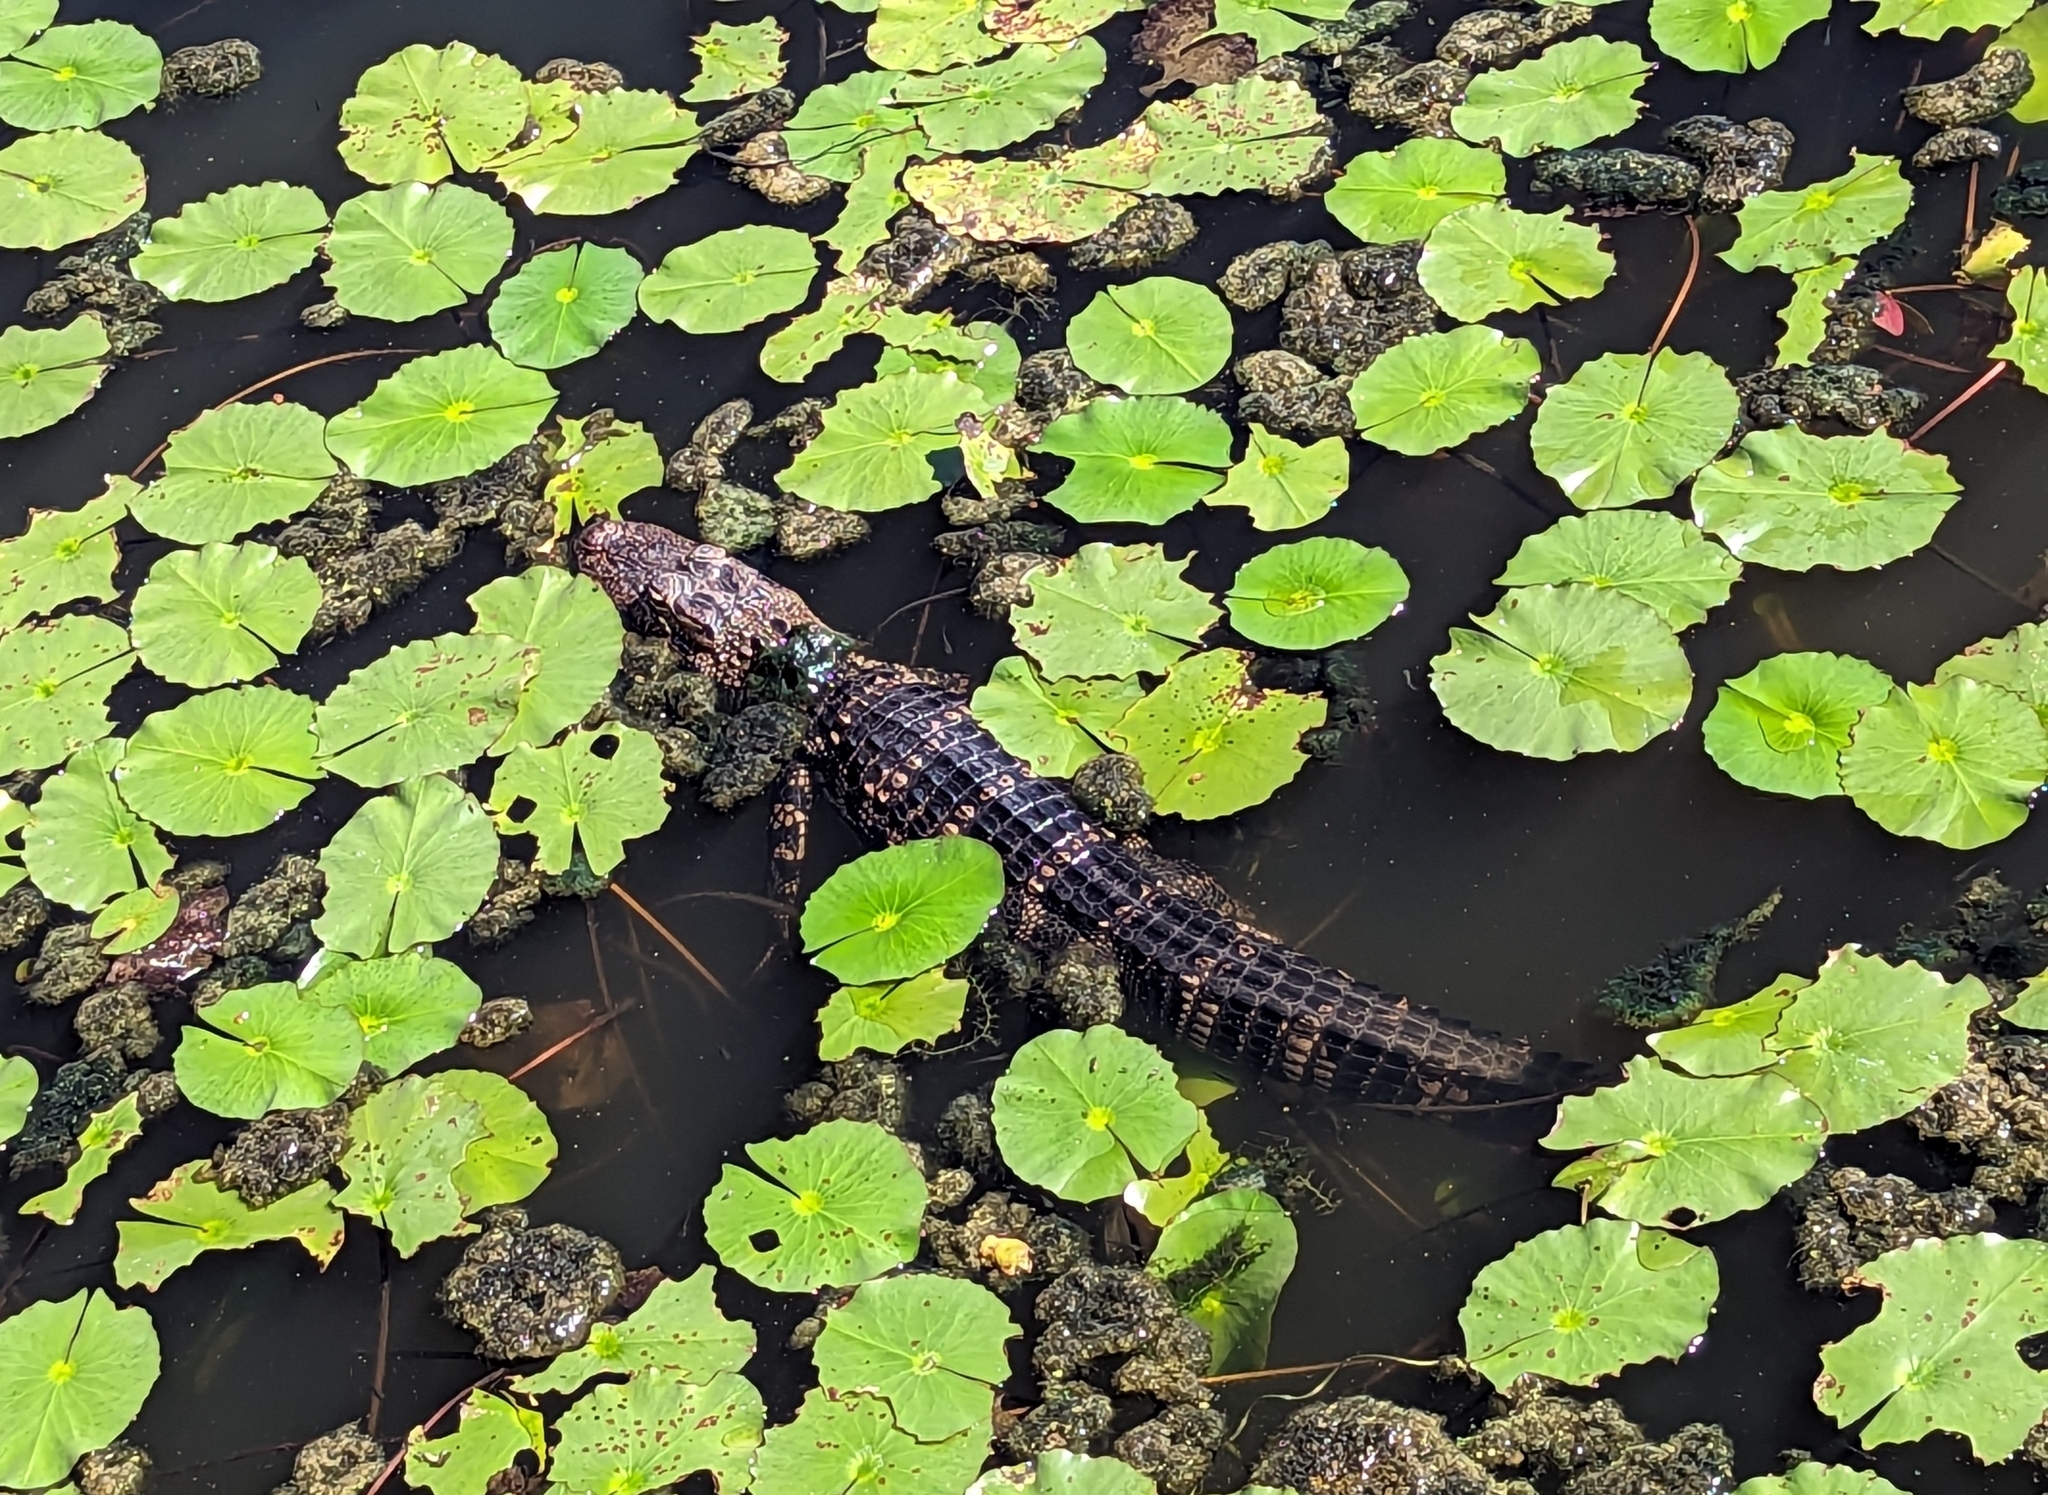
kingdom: Animalia
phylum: Chordata
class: Crocodylia
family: Alligatoridae
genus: Alligator
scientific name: Alligator mississippiensis
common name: American alligator
